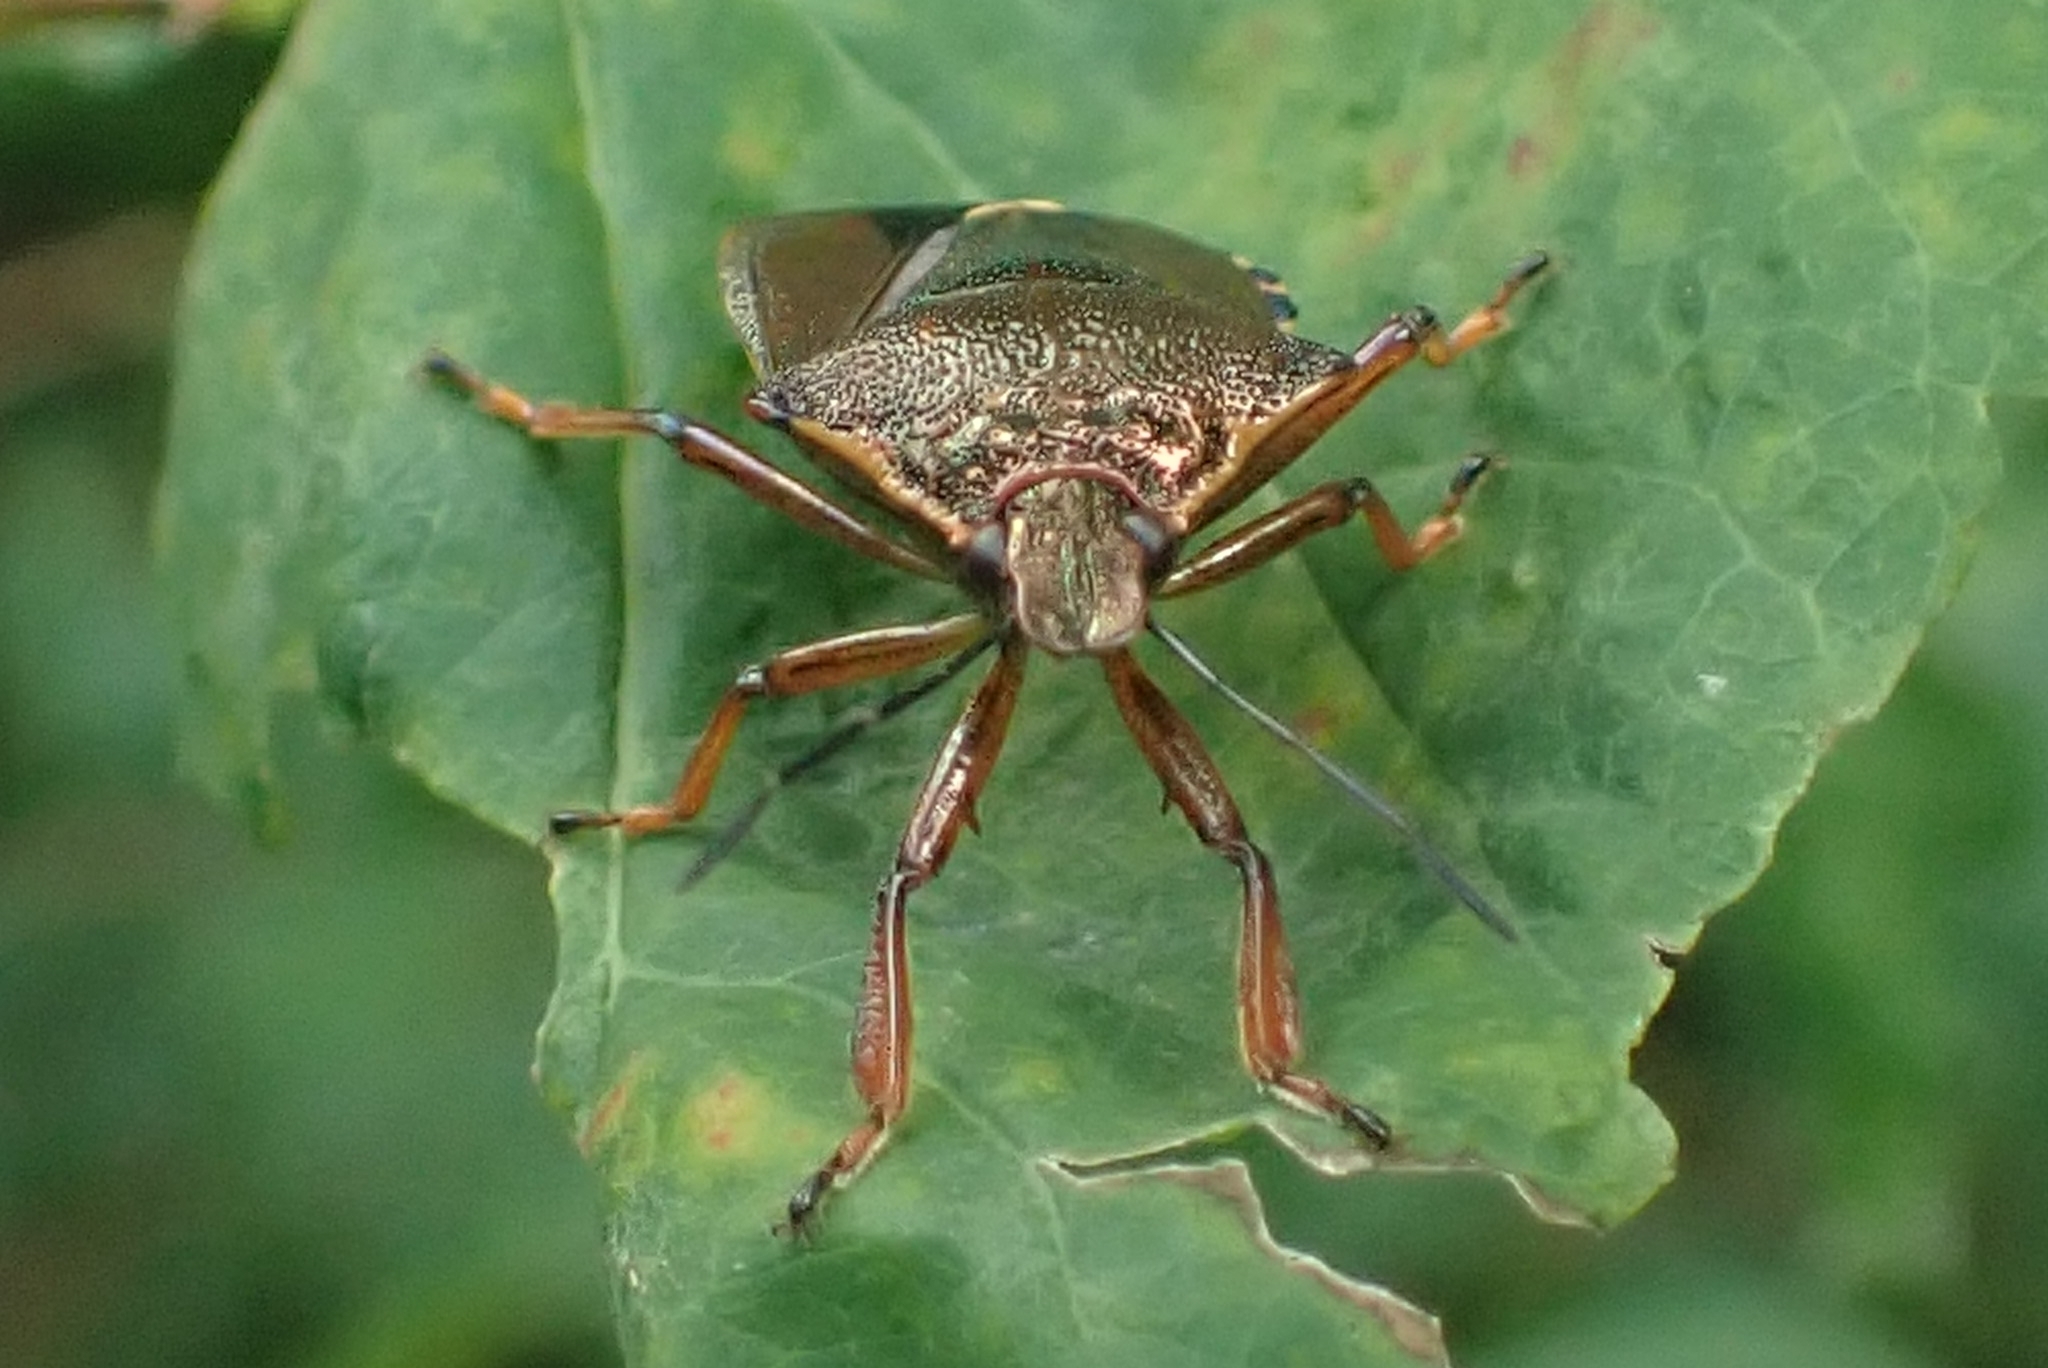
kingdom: Animalia
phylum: Arthropoda
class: Insecta
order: Hemiptera
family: Pentatomidae
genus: Pinthaeus
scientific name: Pinthaeus sanguinipes
